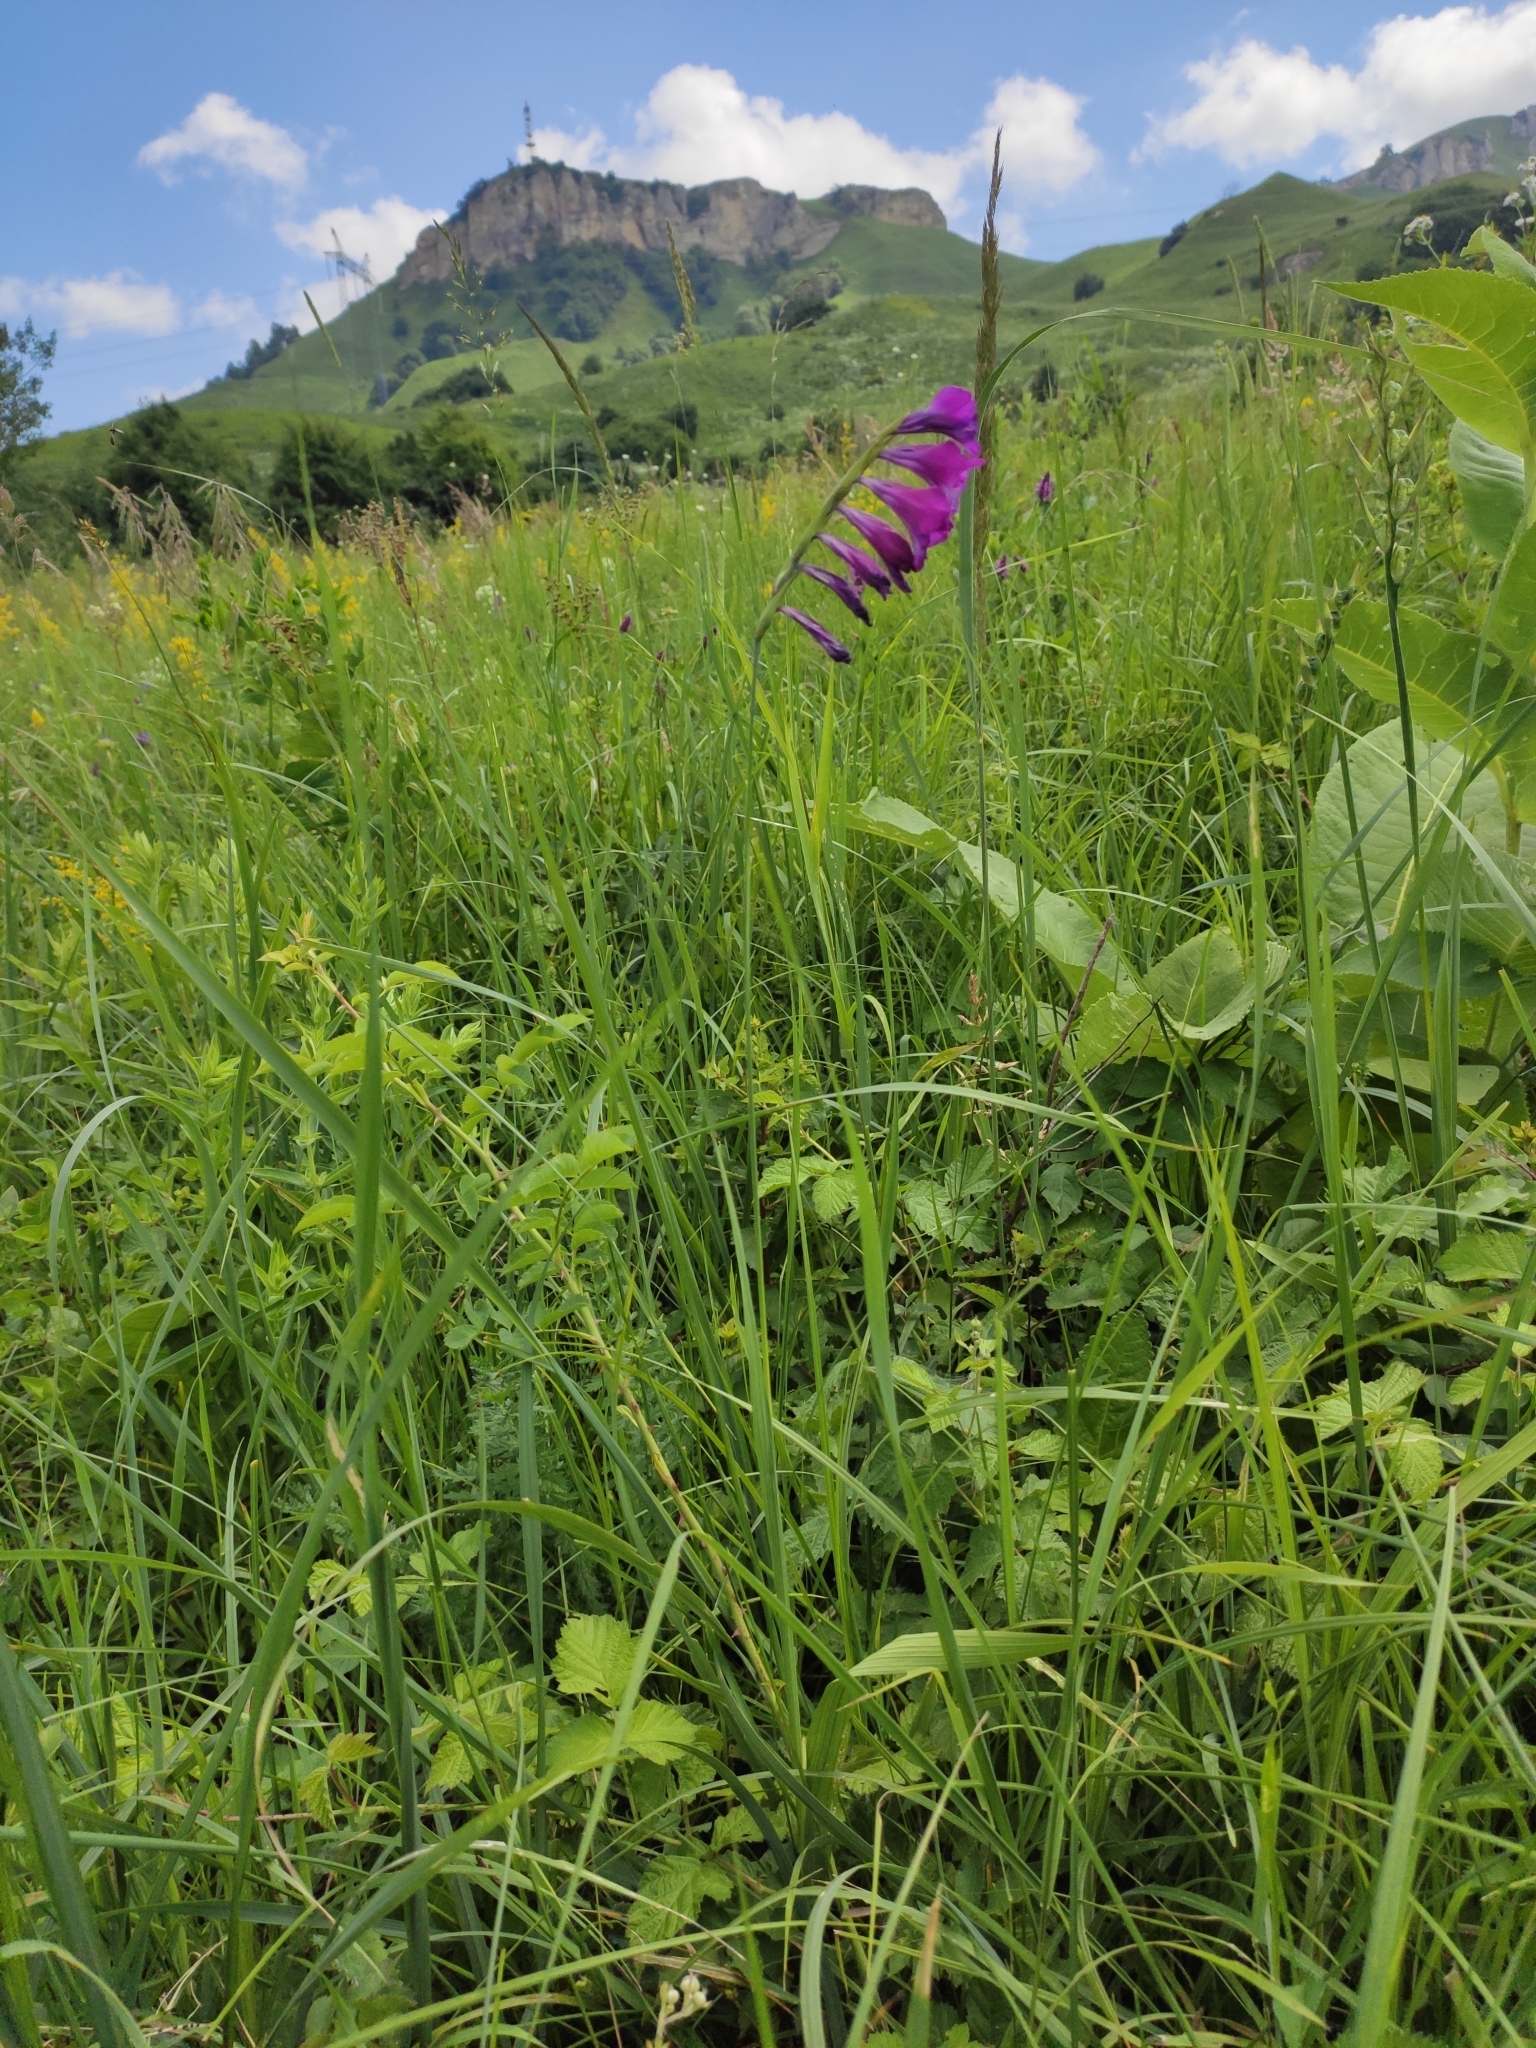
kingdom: Plantae
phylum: Tracheophyta
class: Liliopsida
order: Asparagales
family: Iridaceae
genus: Gladiolus
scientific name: Gladiolus tenuis
